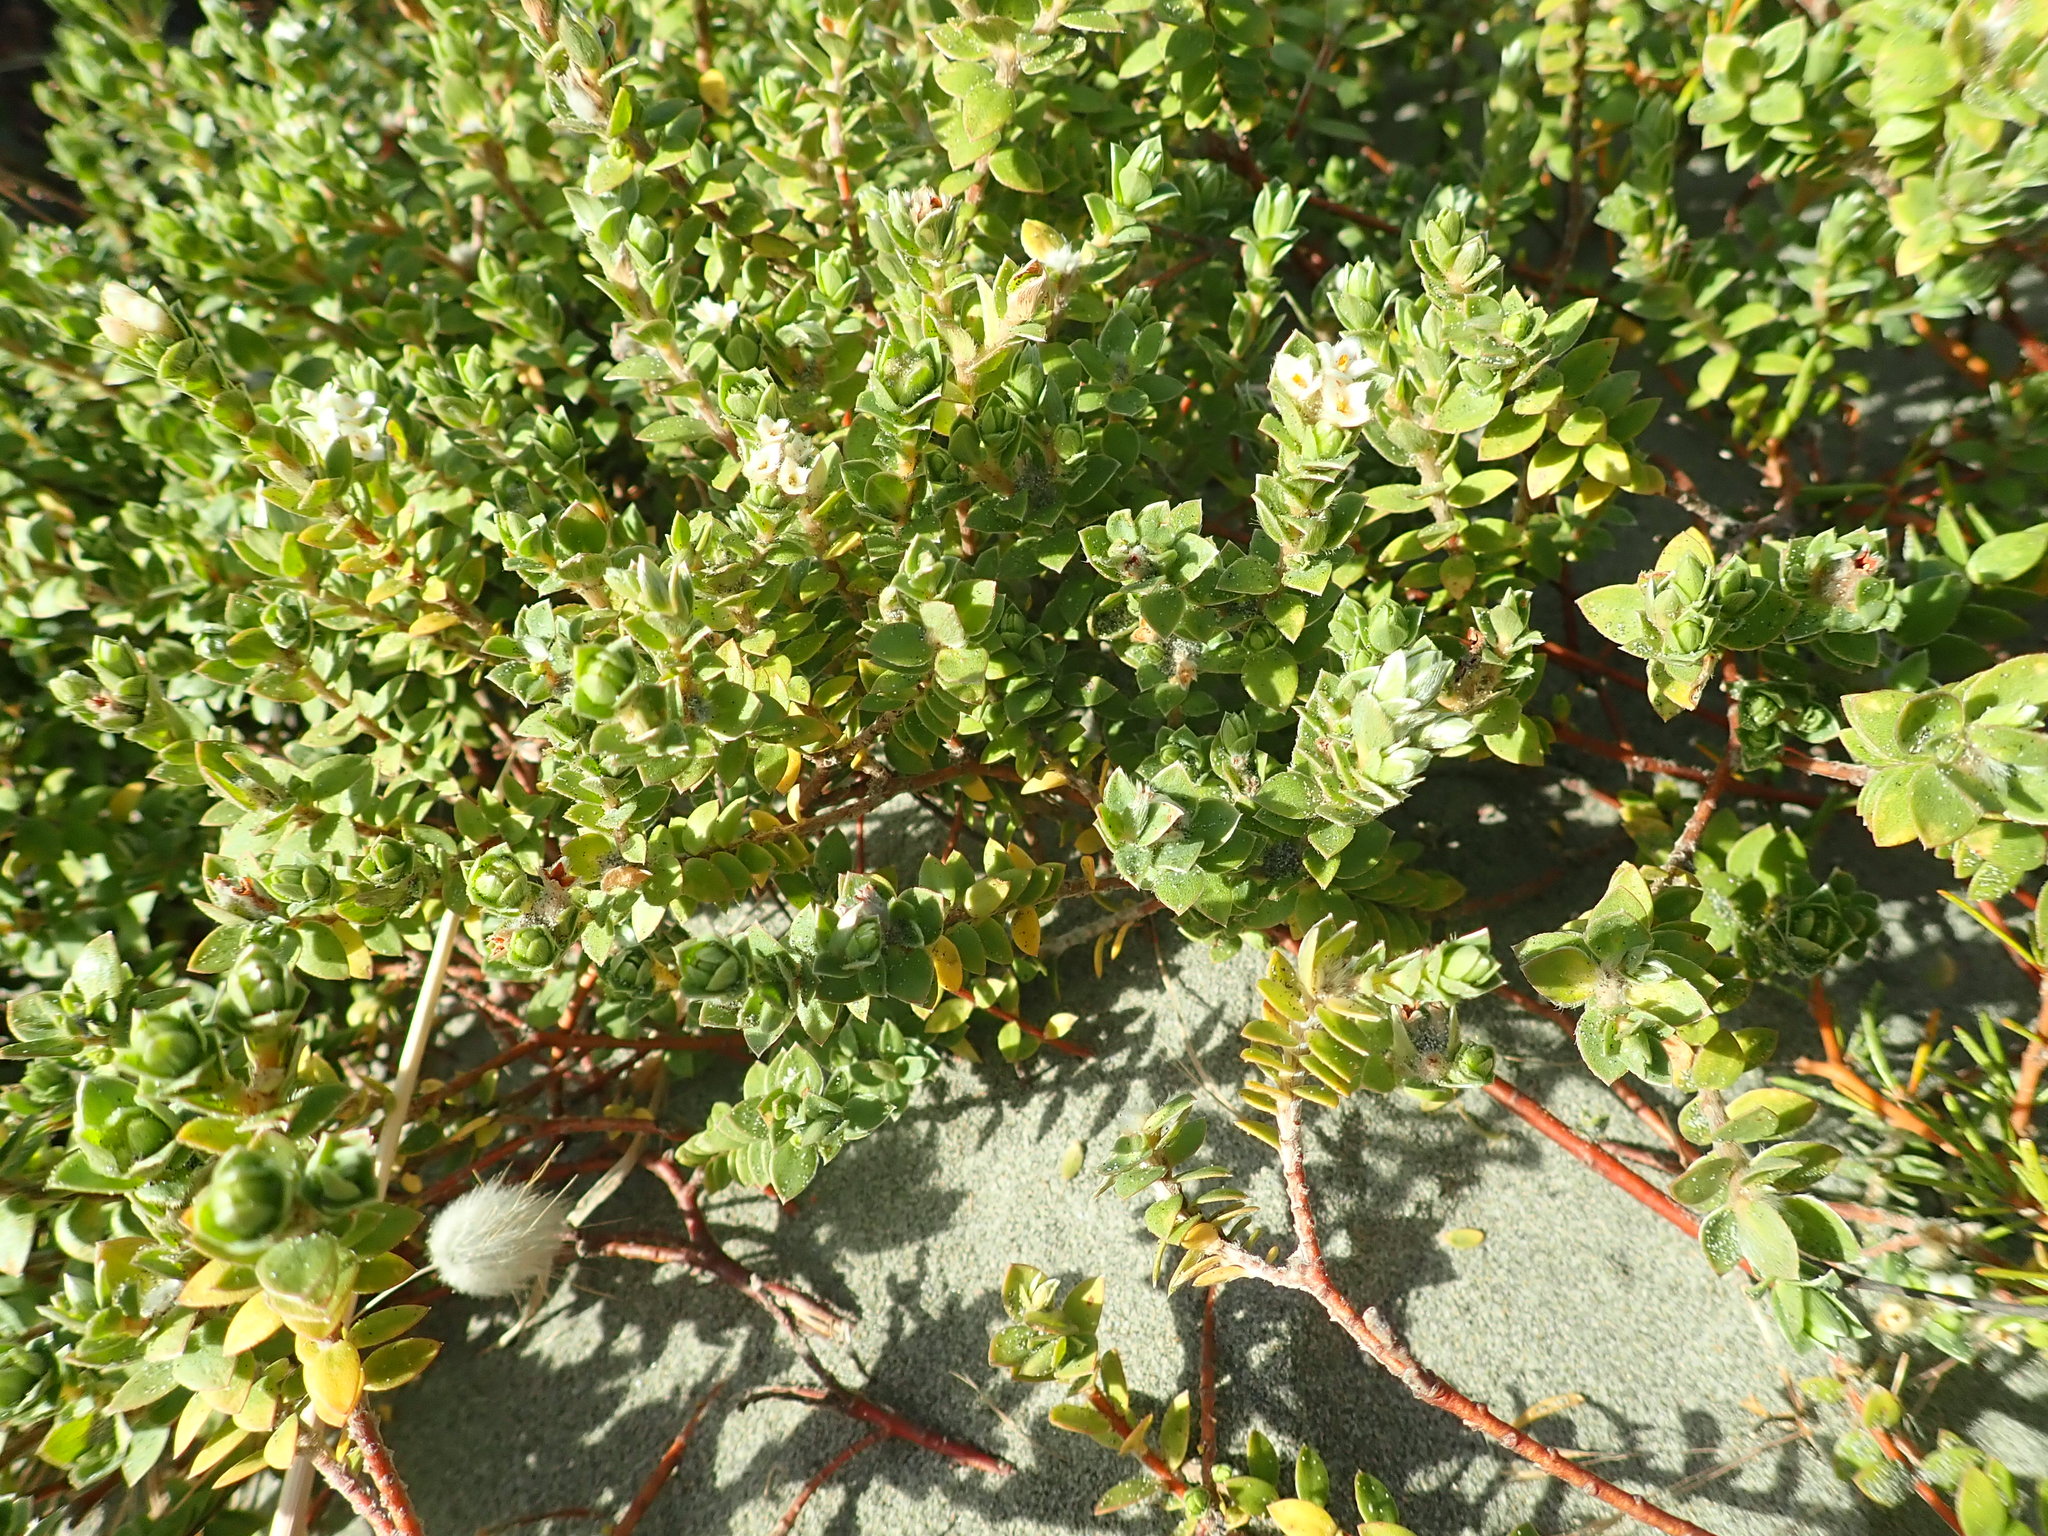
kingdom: Plantae
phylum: Tracheophyta
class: Magnoliopsida
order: Malvales
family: Thymelaeaceae
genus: Pimelea
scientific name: Pimelea villosa
